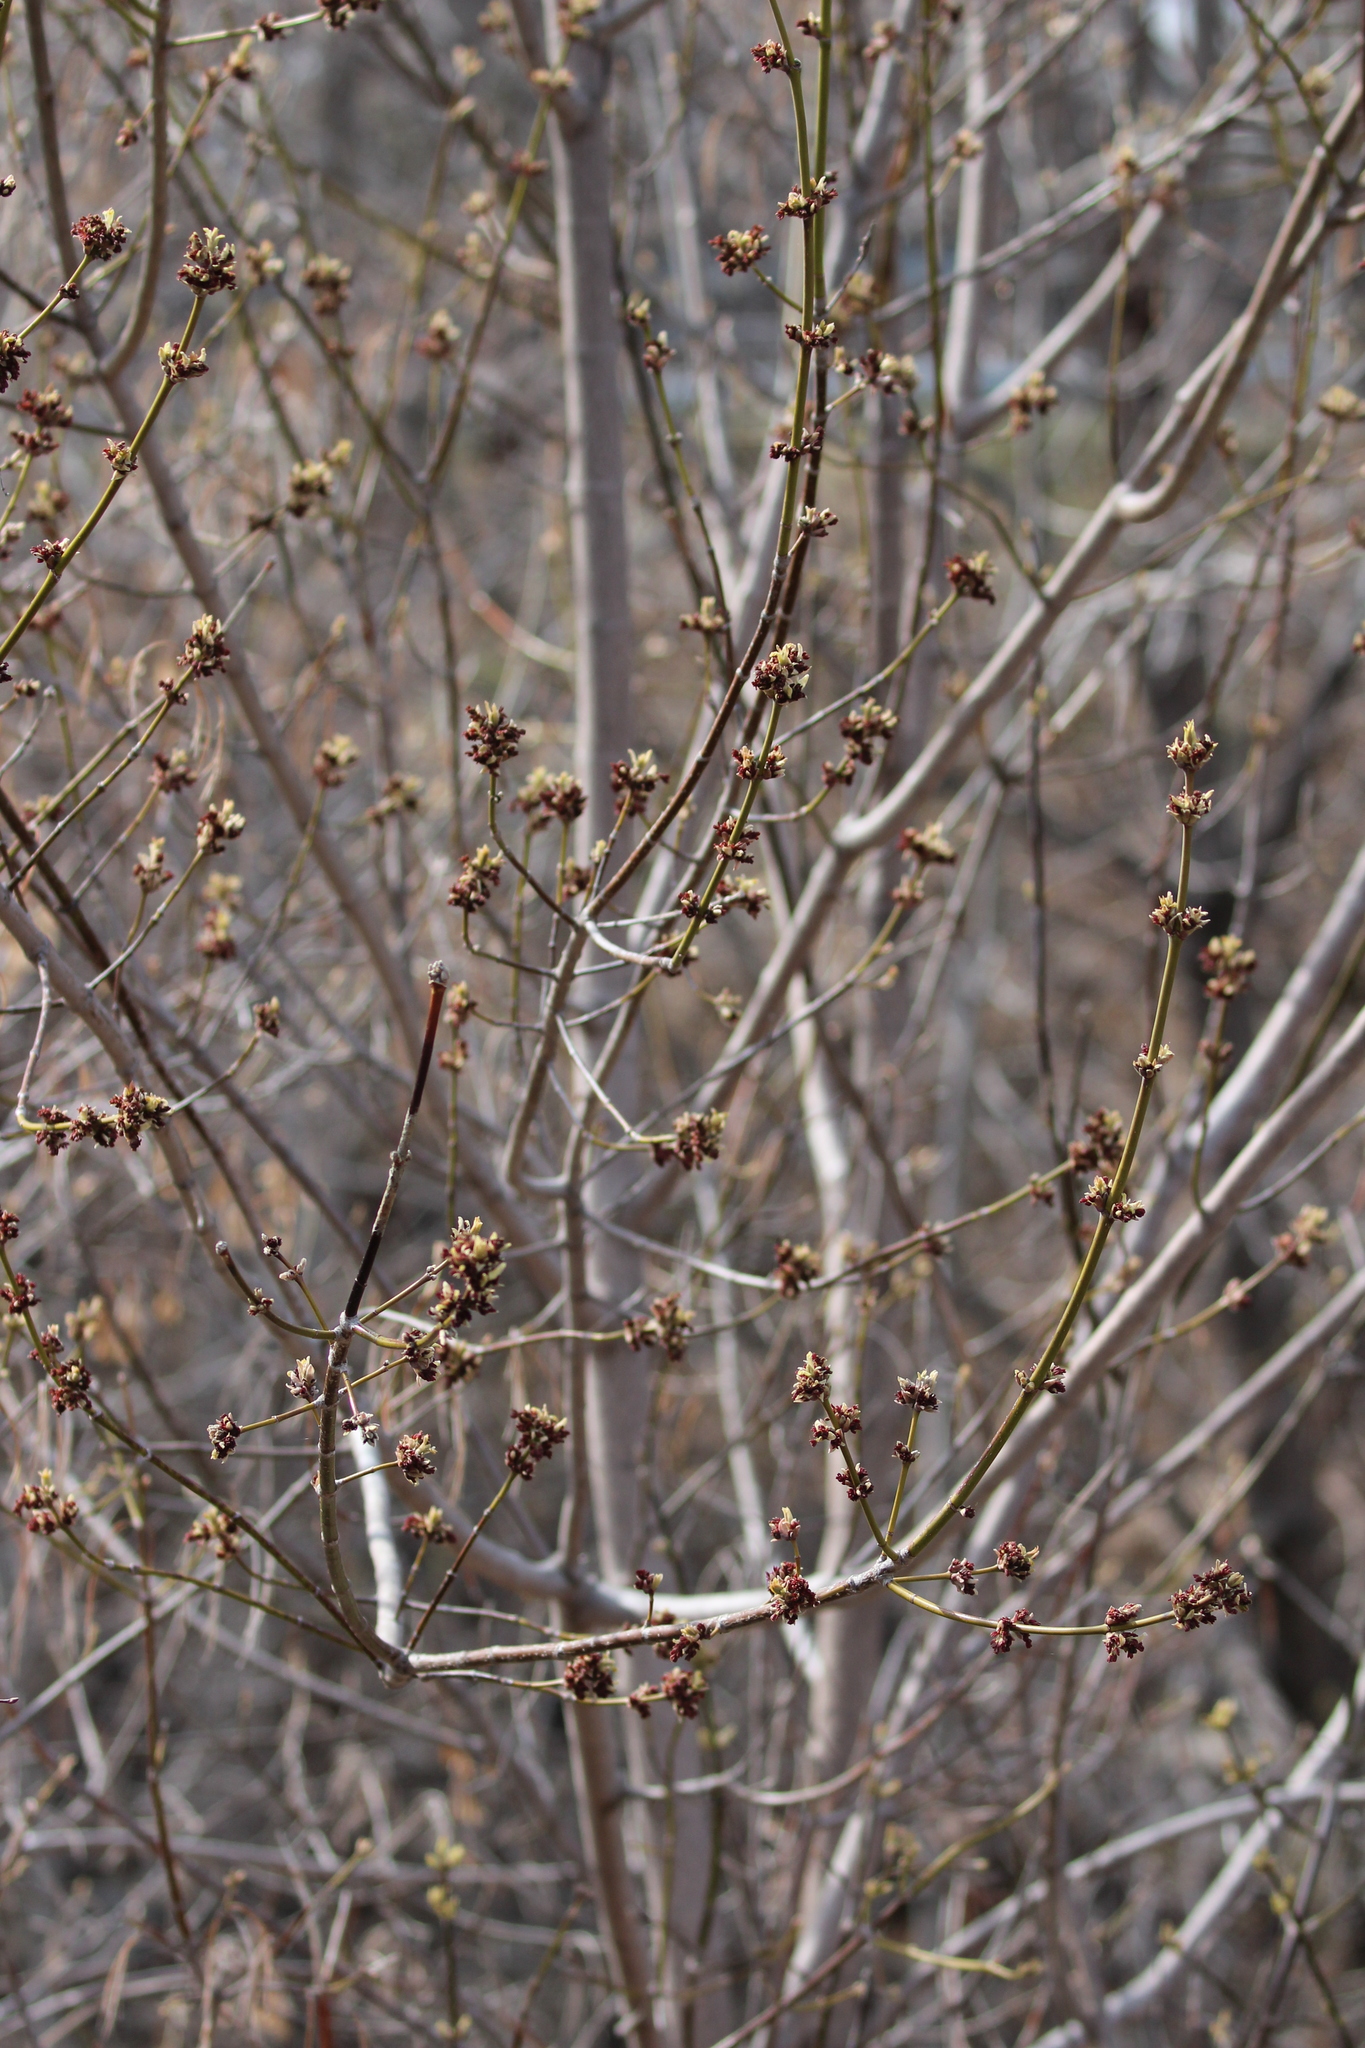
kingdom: Plantae
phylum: Tracheophyta
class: Magnoliopsida
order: Sapindales
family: Sapindaceae
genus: Acer
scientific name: Acer negundo
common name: Ashleaf maple
